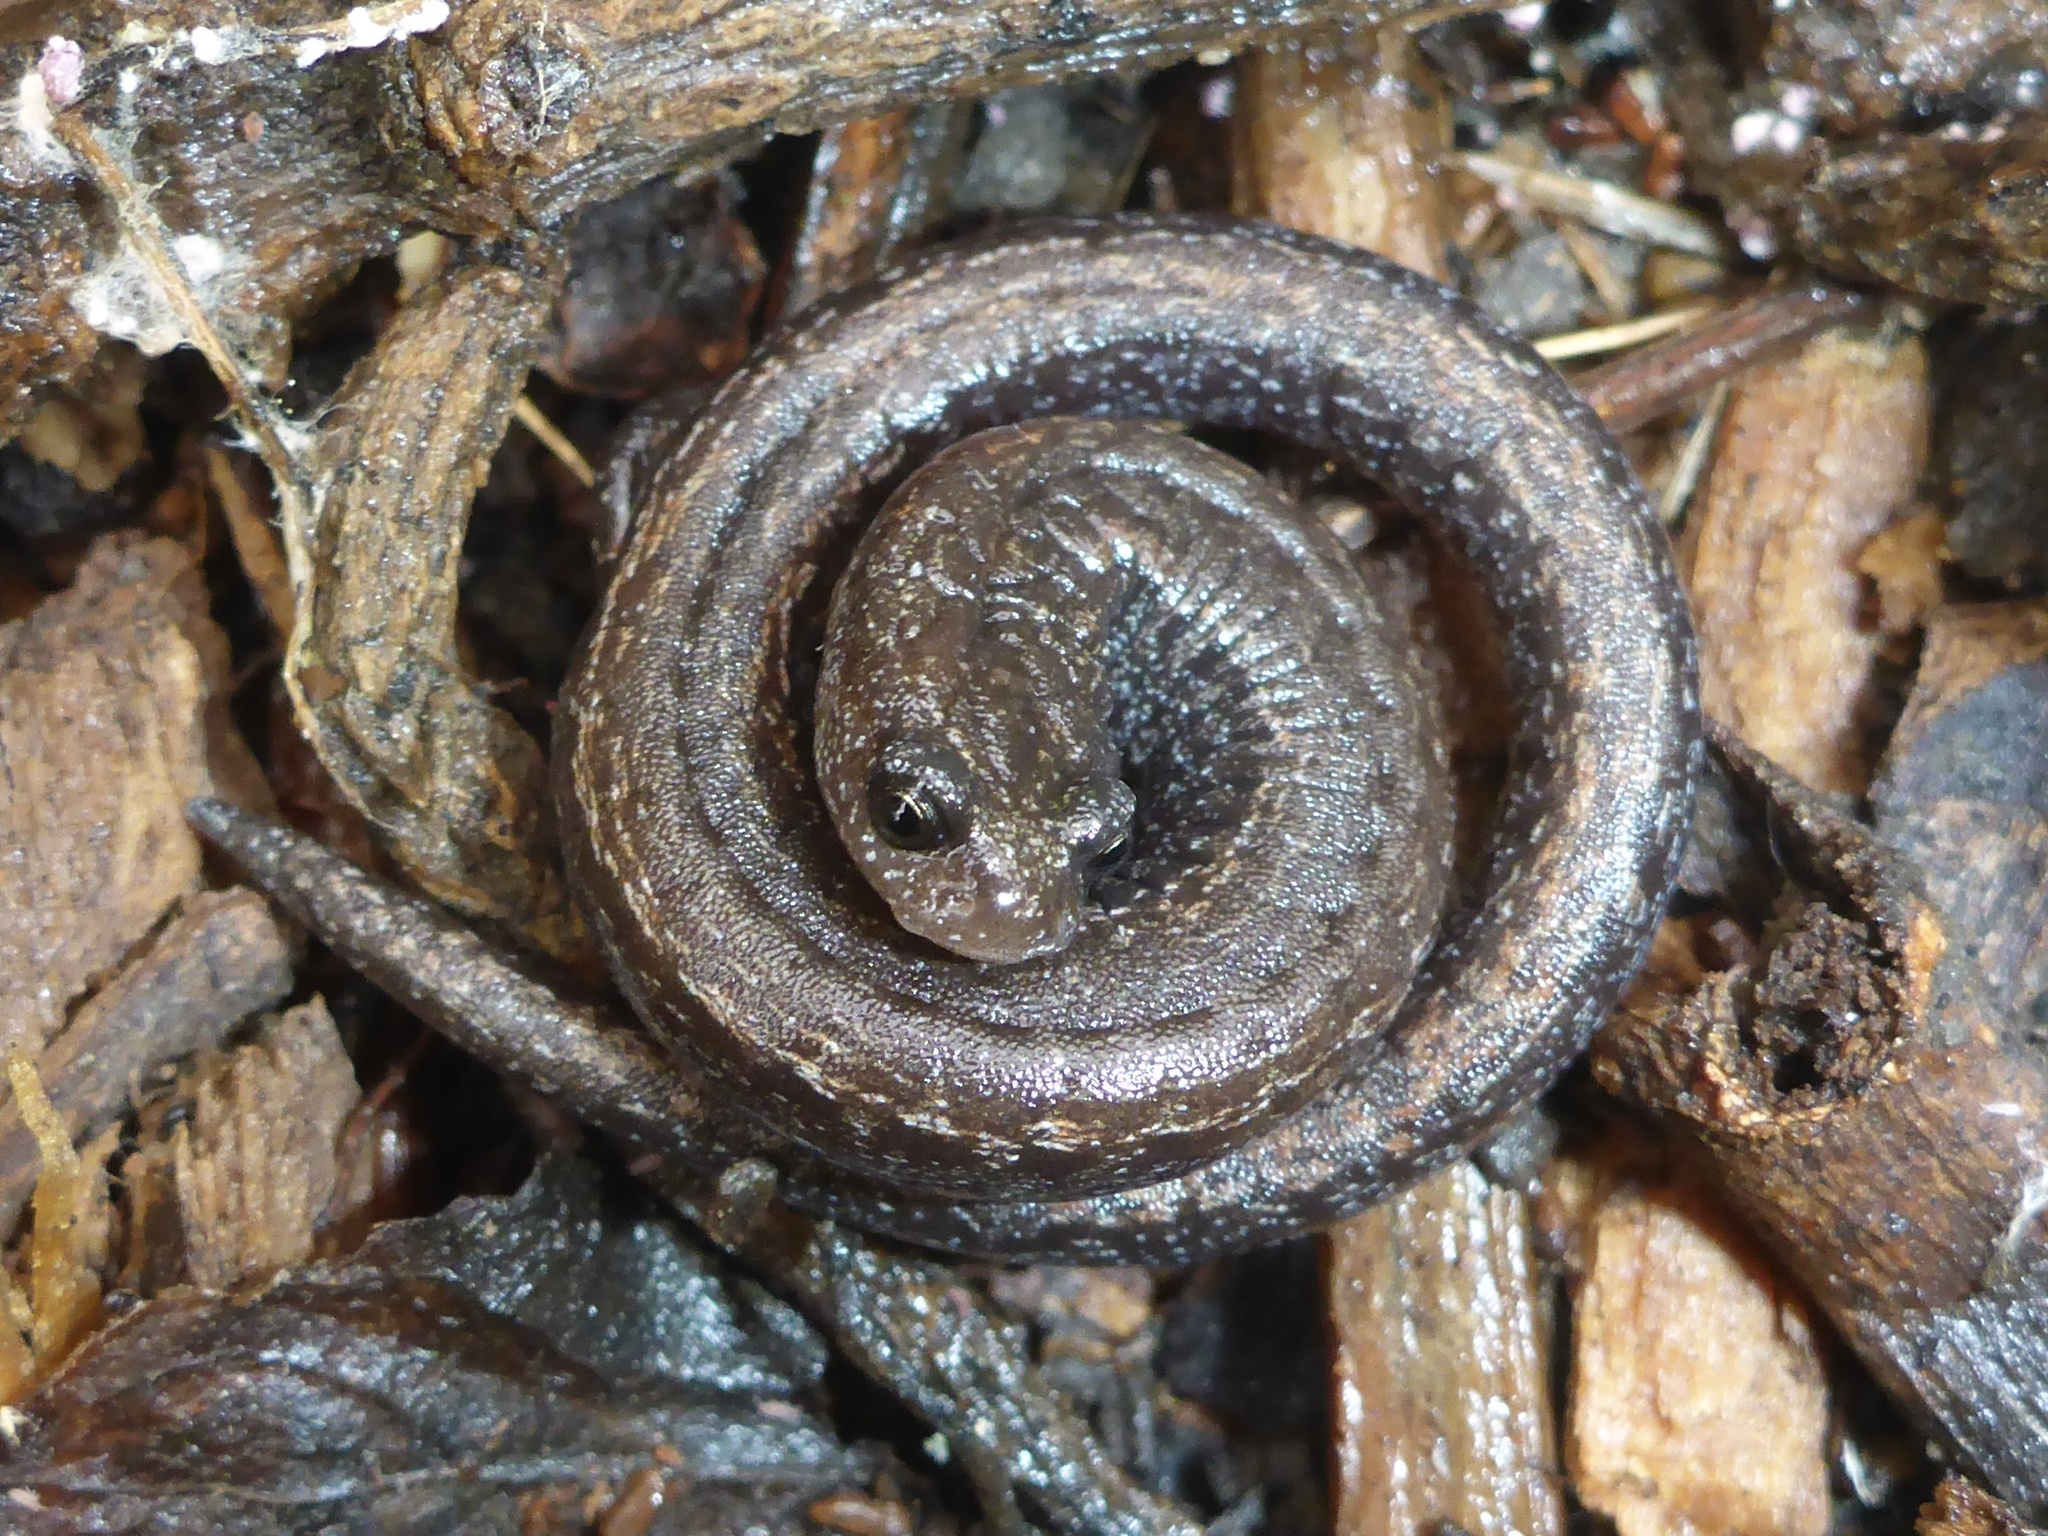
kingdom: Animalia
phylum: Chordata
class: Amphibia
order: Caudata
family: Plethodontidae
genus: Batrachoseps
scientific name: Batrachoseps attenuatus
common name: California slender salamander
